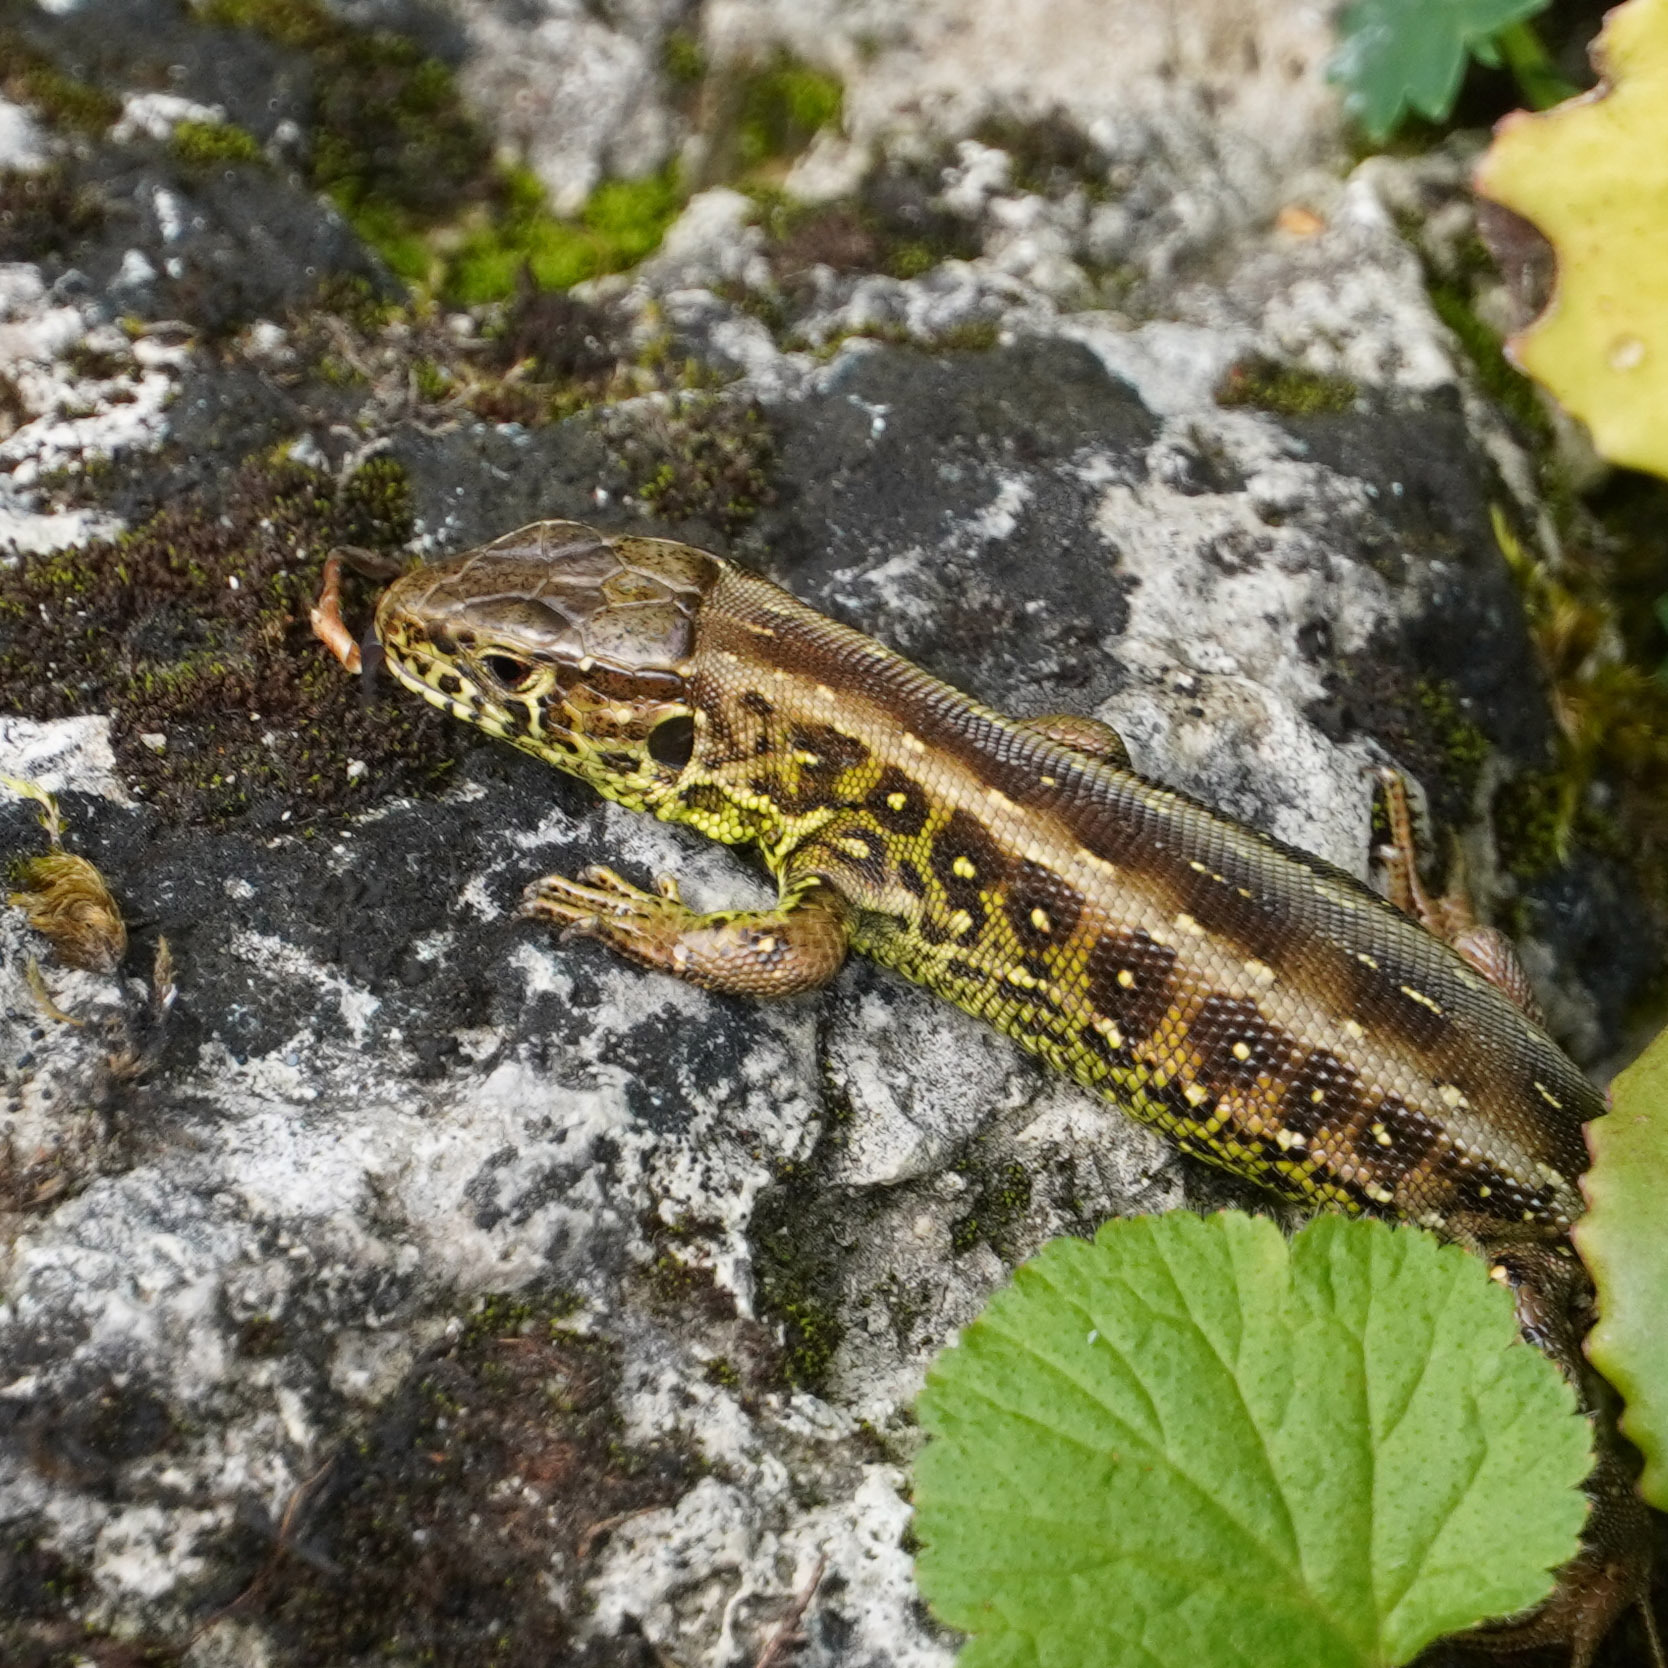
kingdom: Animalia
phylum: Chordata
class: Squamata
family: Lacertidae
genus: Lacerta
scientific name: Lacerta agilis
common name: Sand lizard
